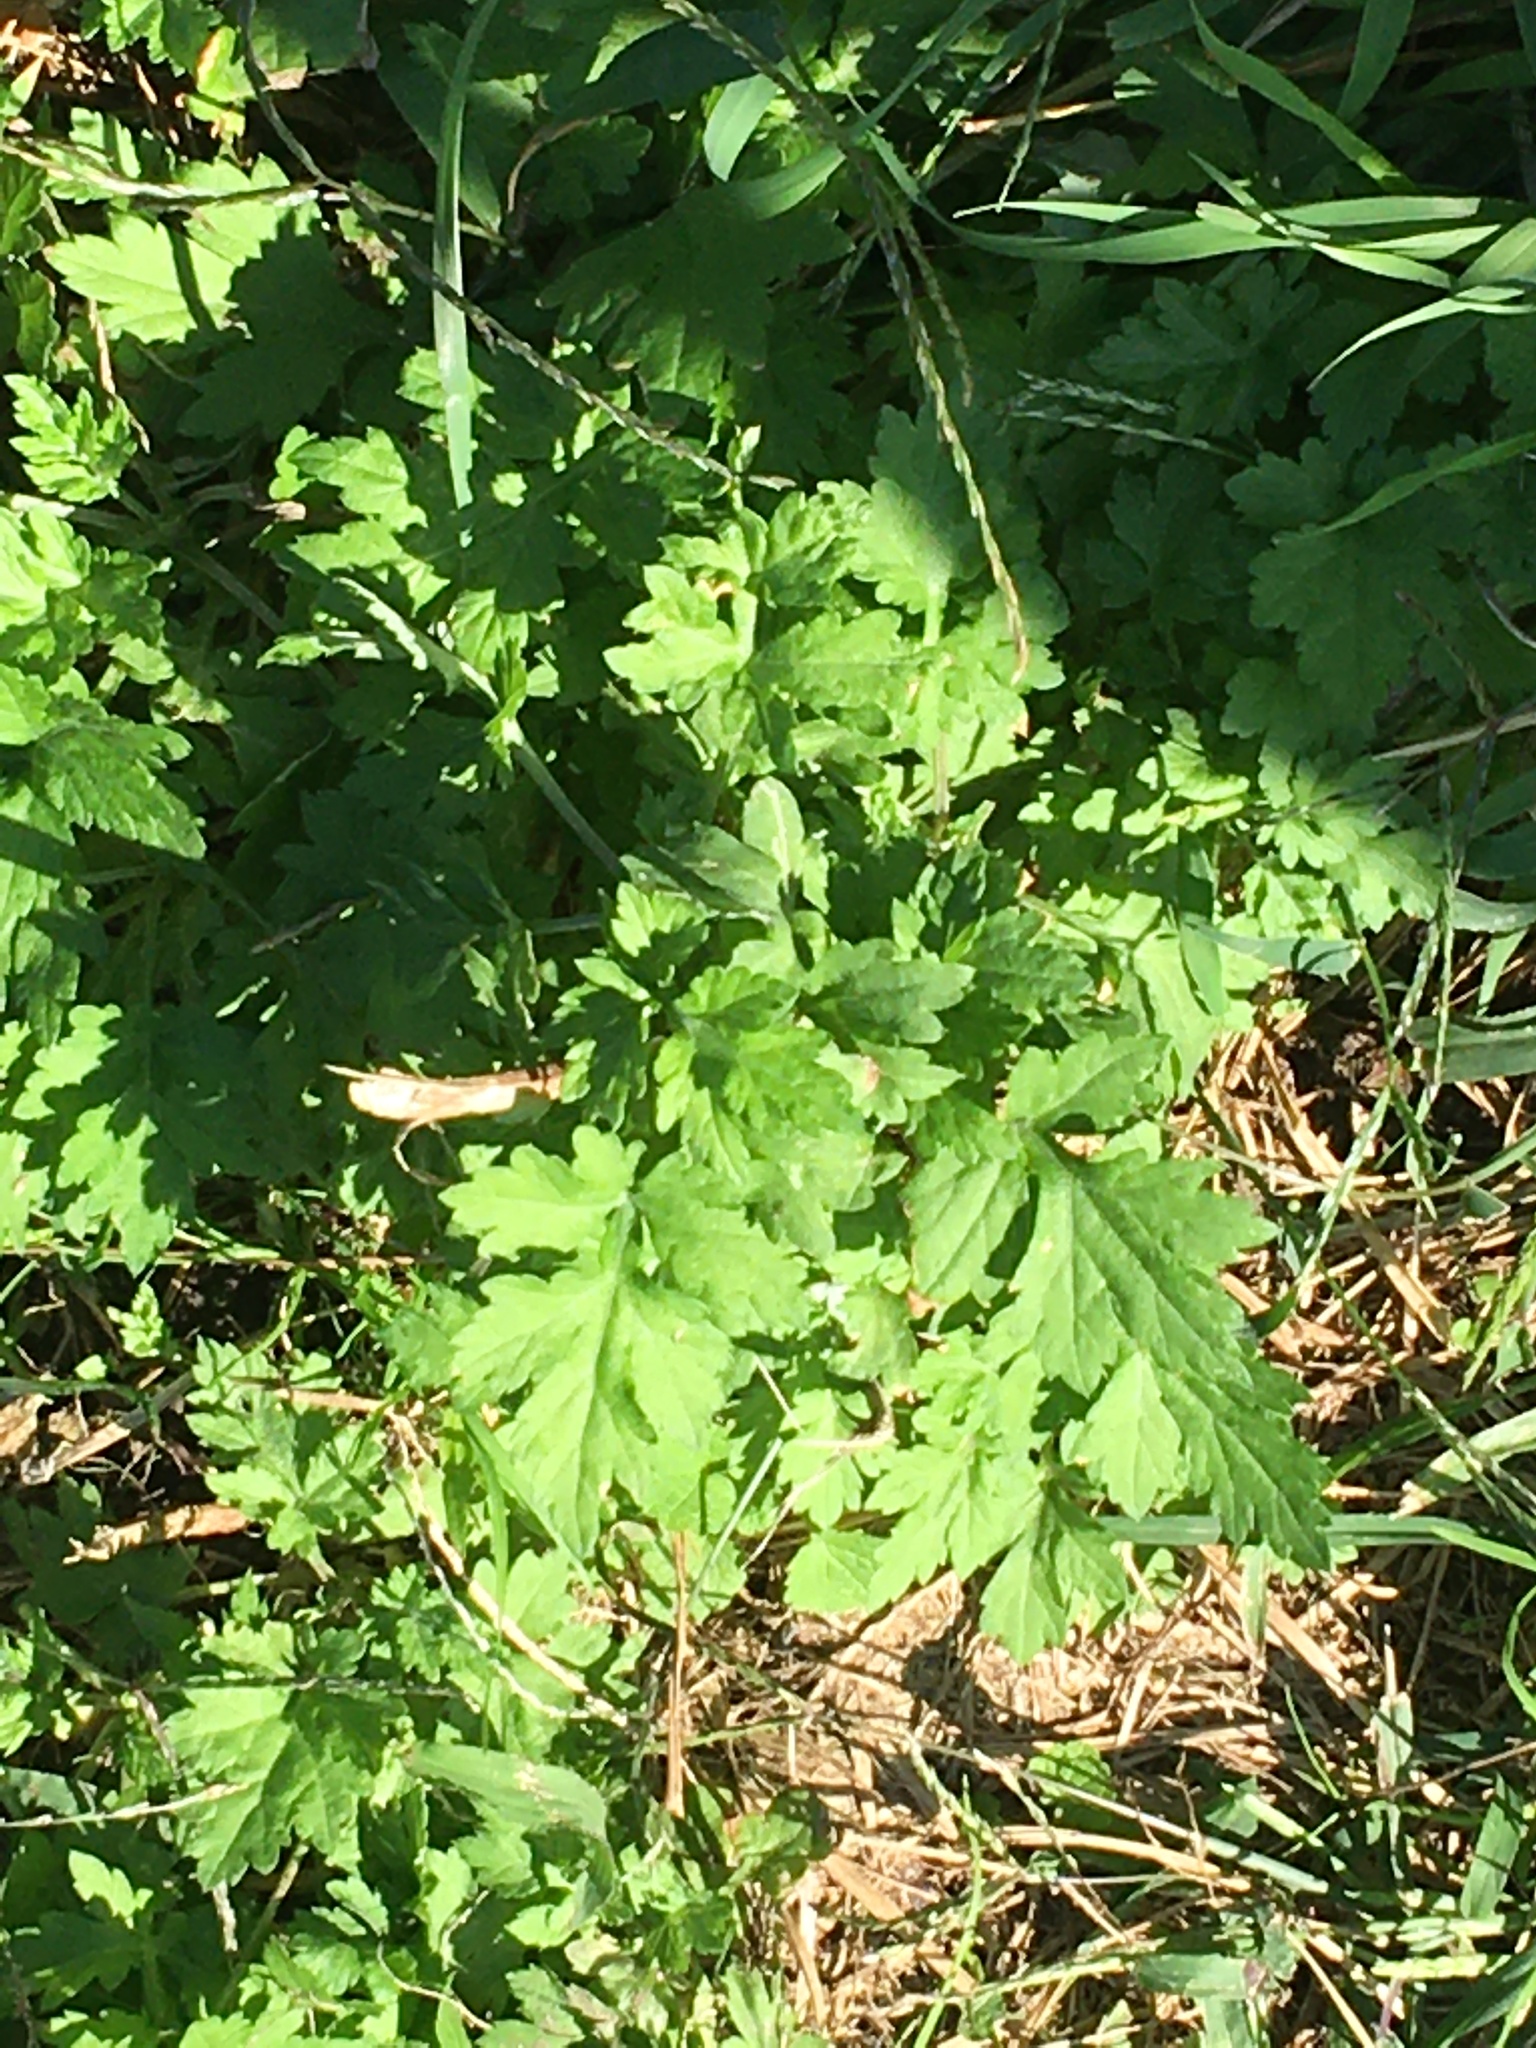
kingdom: Plantae
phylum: Tracheophyta
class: Magnoliopsida
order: Asterales
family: Asteraceae
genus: Artemisia
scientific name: Artemisia vulgaris
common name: Mugwort
